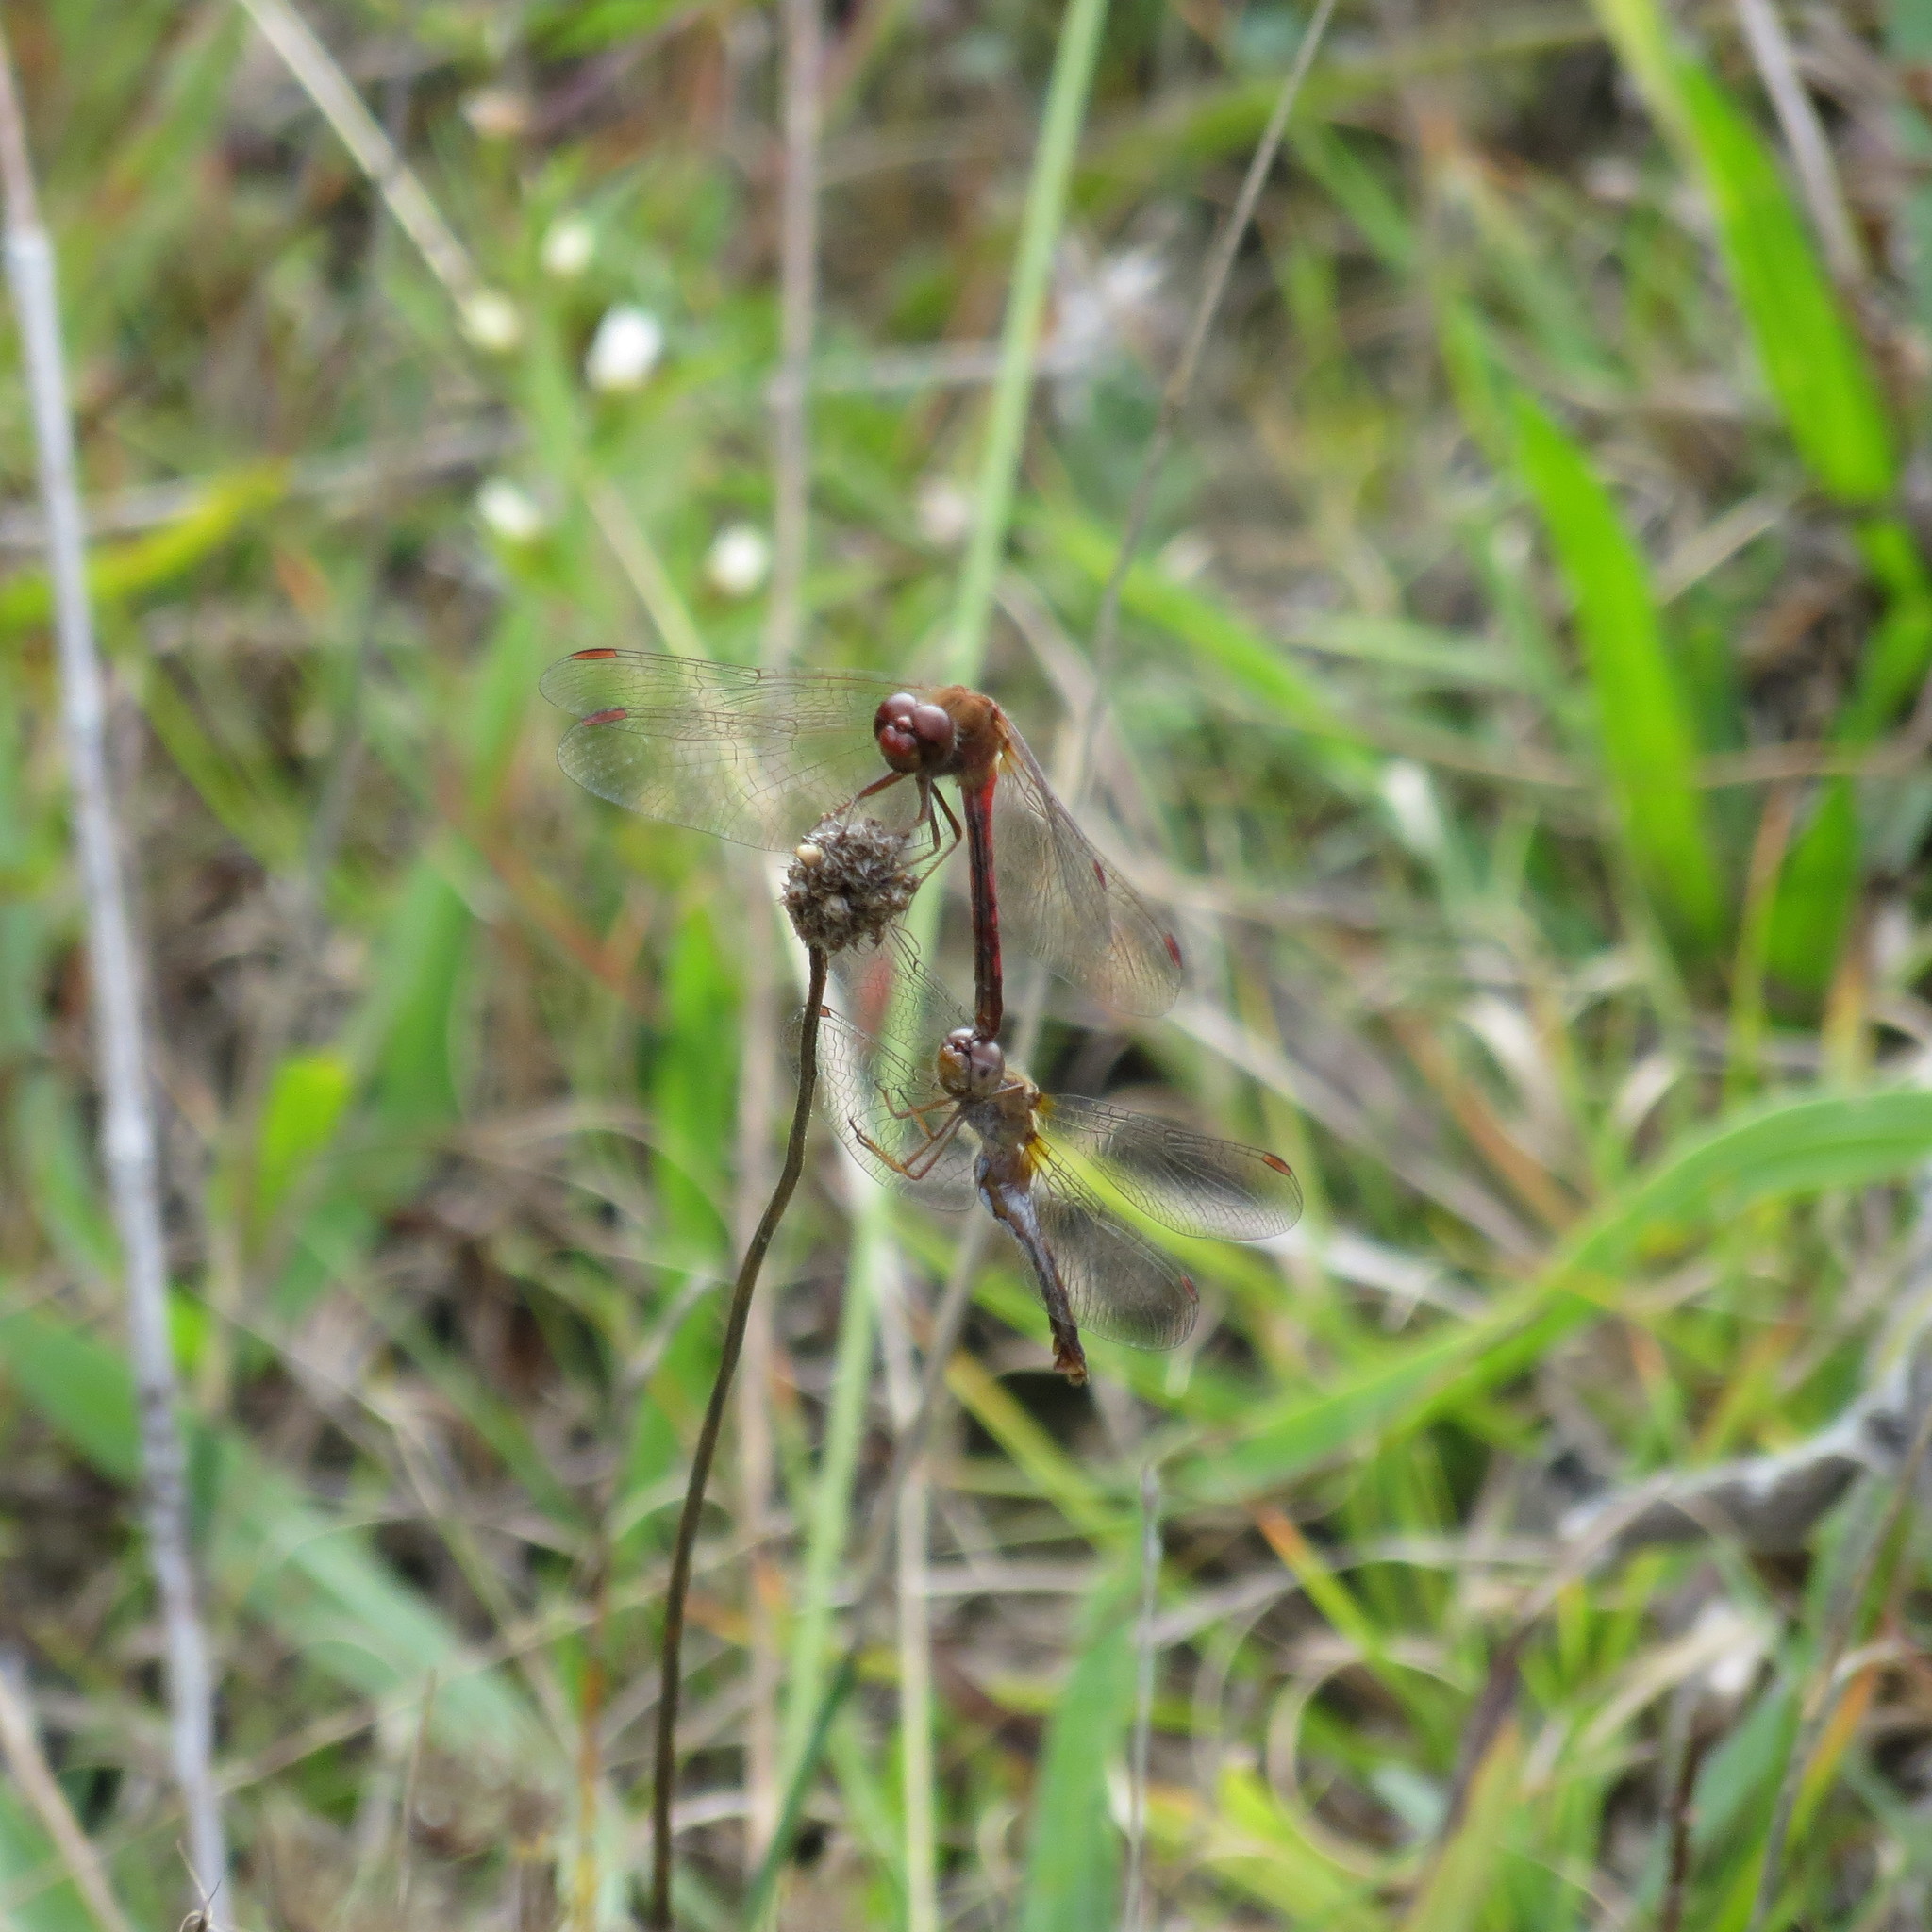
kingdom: Animalia
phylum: Arthropoda
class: Insecta
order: Odonata
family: Libellulidae
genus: Sympetrum
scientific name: Sympetrum vicinum
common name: Autumn meadowhawk
